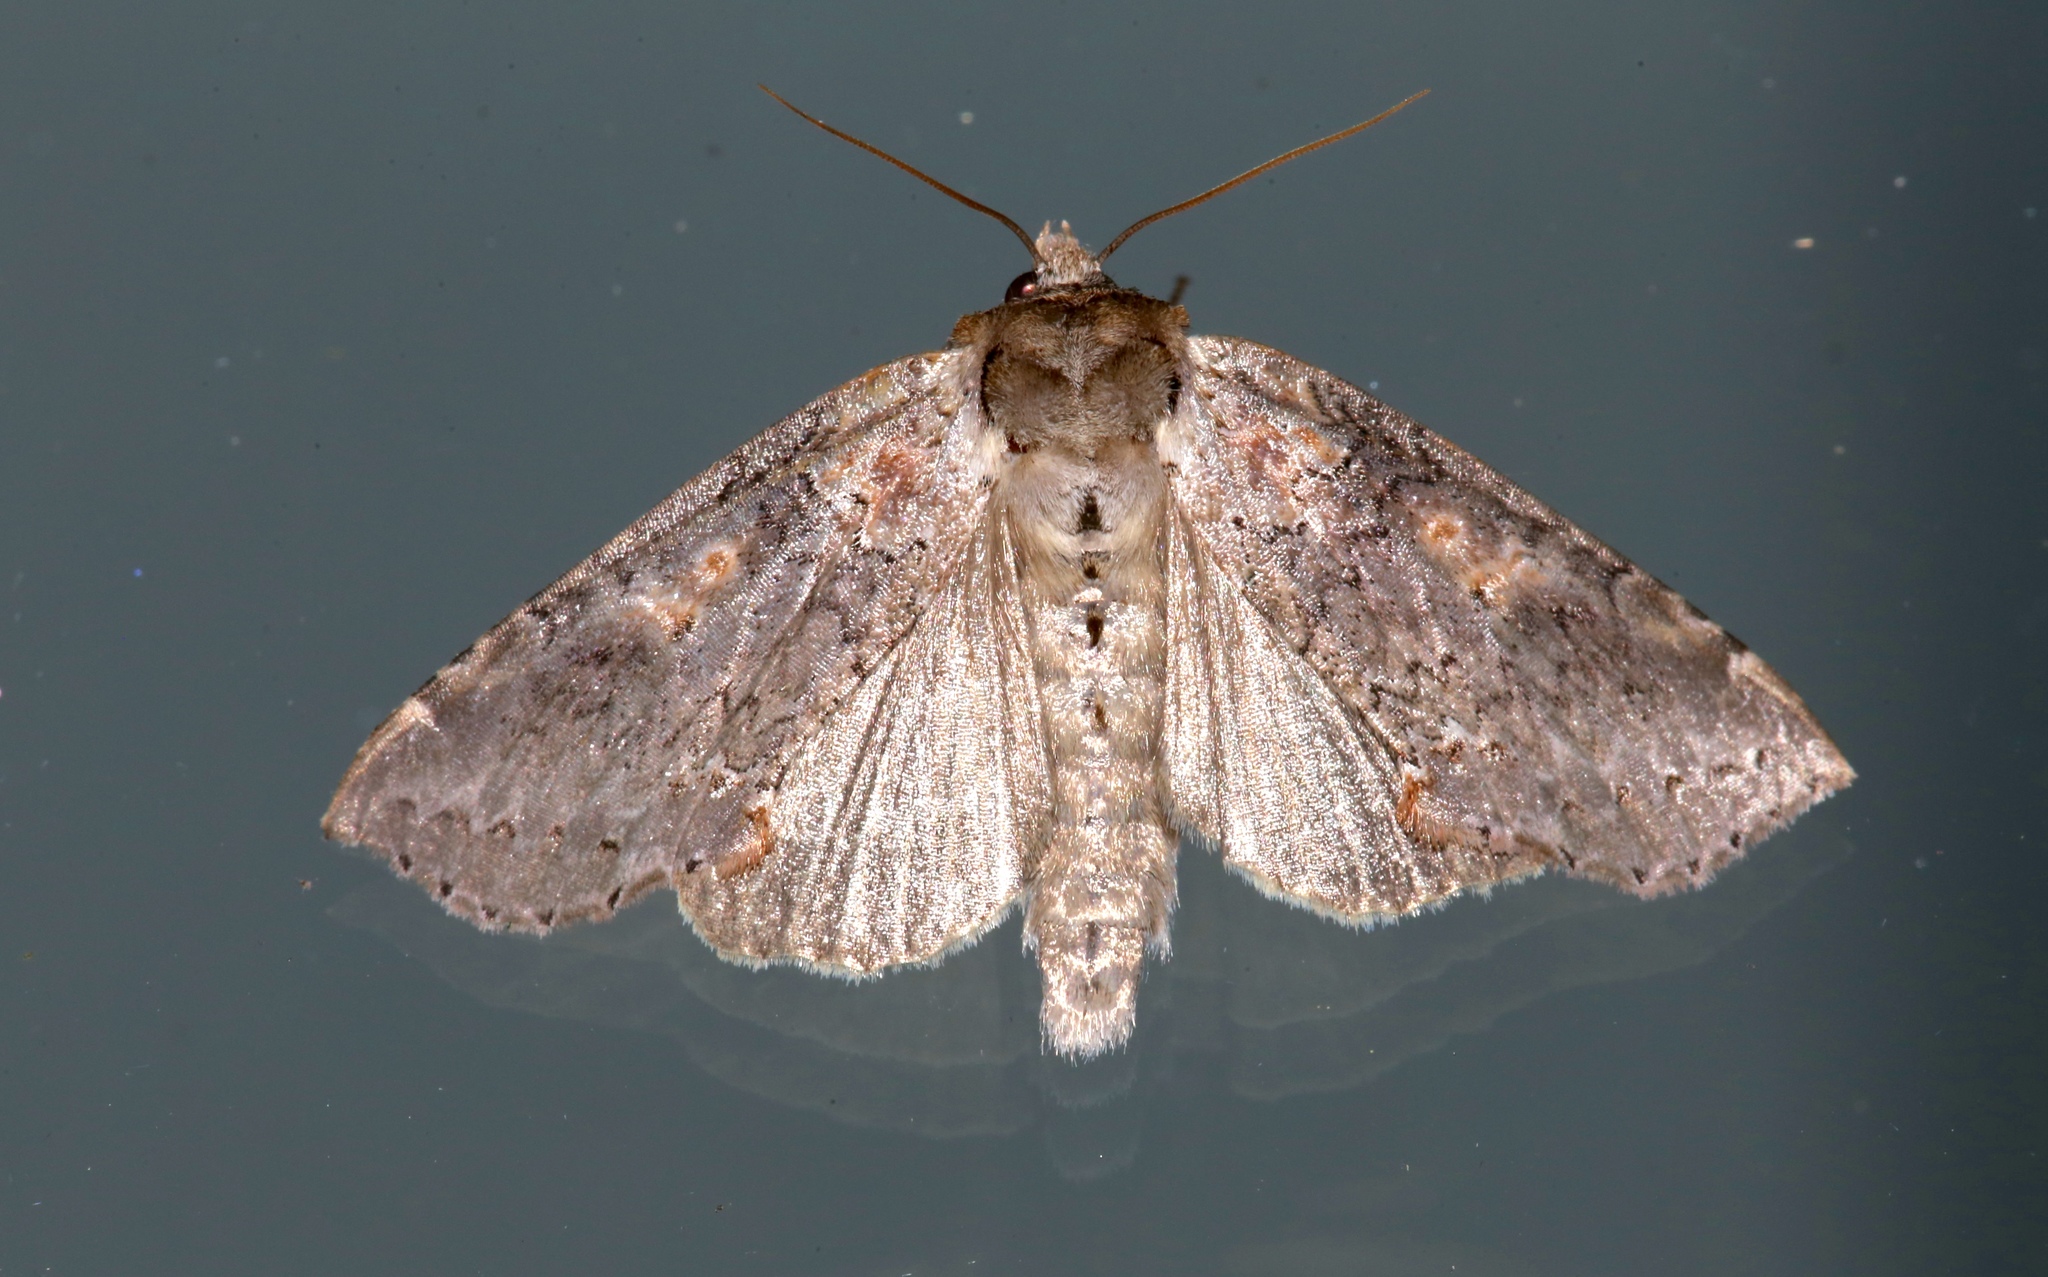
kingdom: Animalia
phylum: Arthropoda
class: Insecta
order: Lepidoptera
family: Drepanidae
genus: Pseudothyatira
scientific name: Pseudothyatira cymatophoroides
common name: Tufted thyatirid moth
